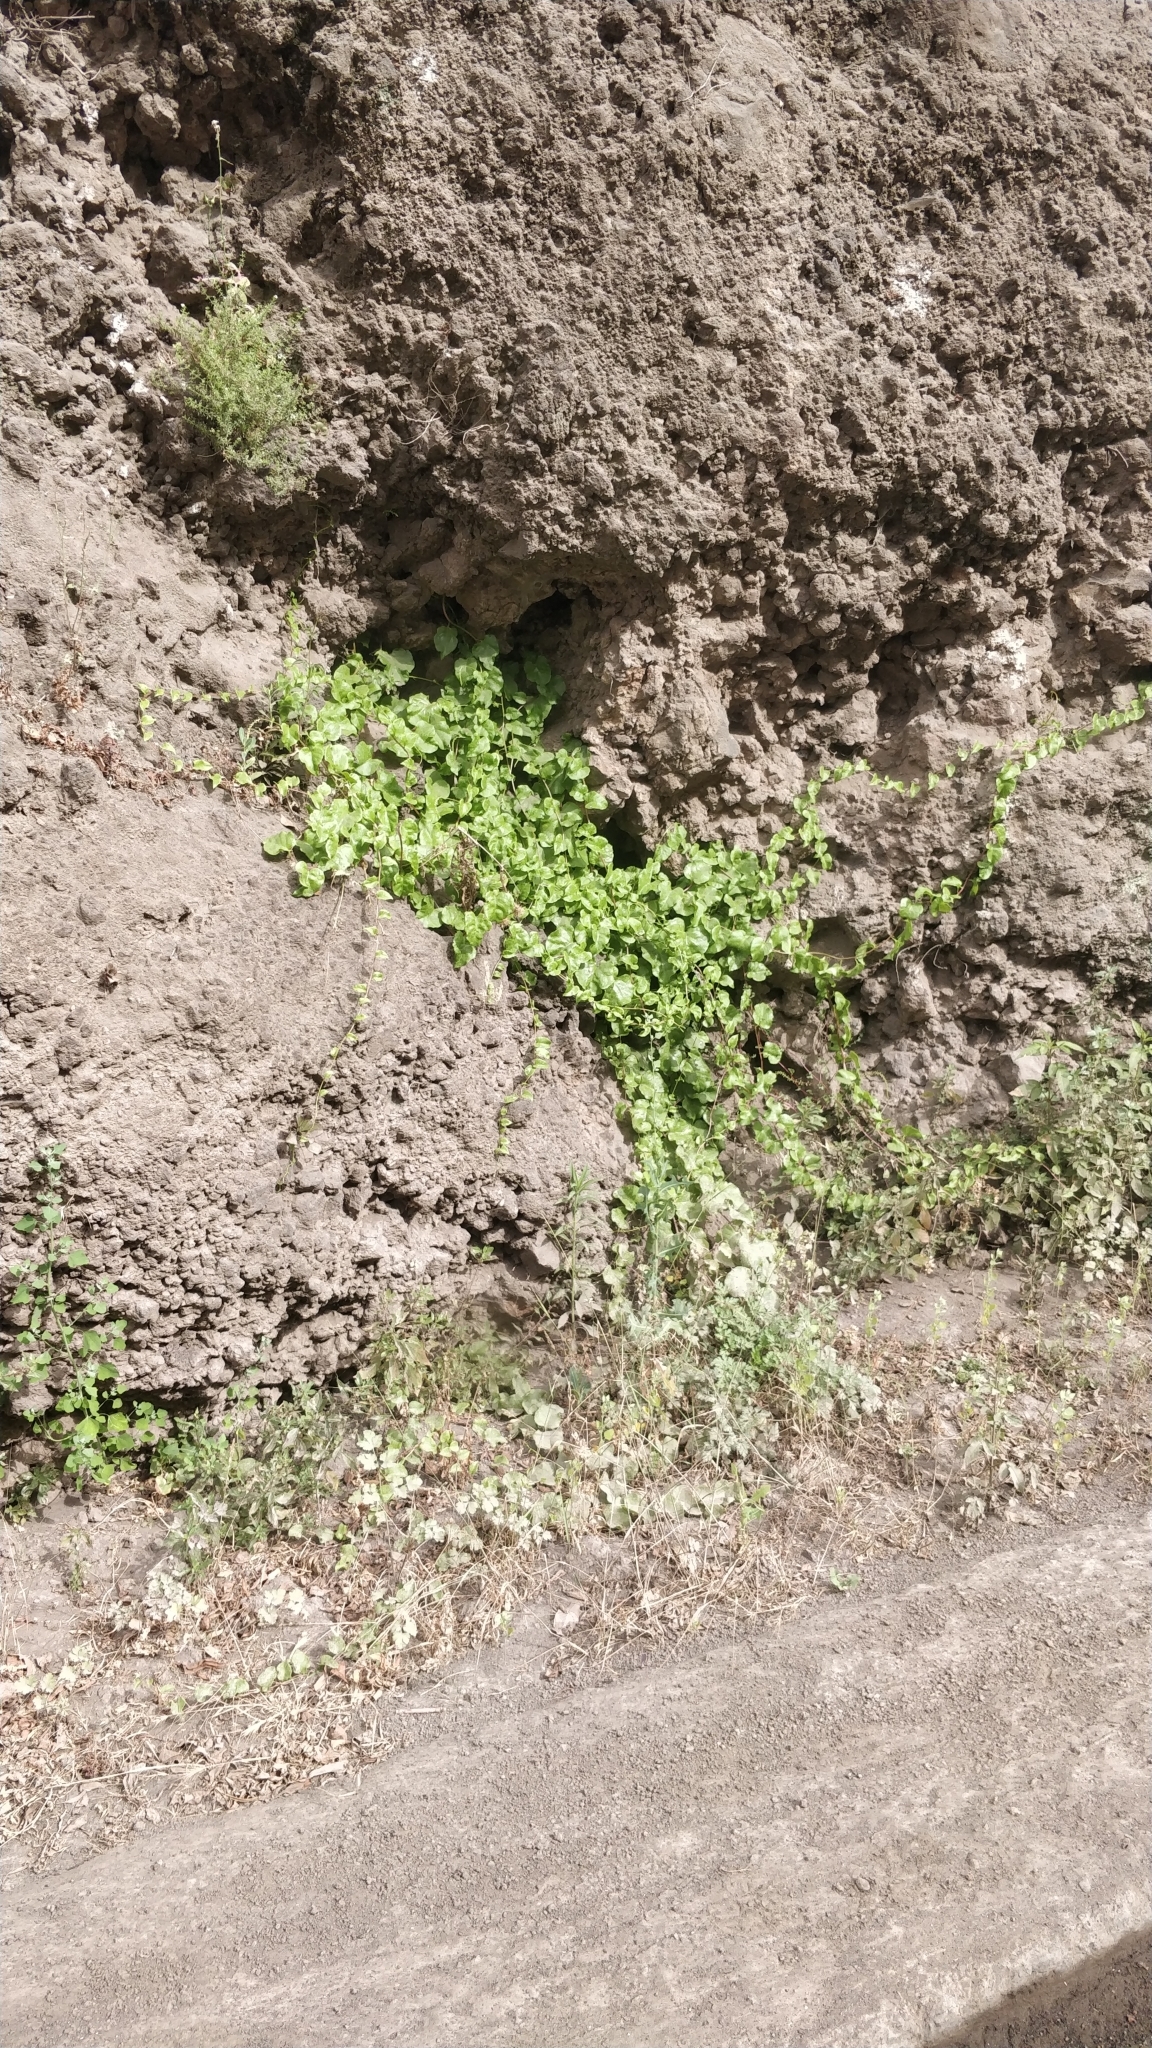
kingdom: Plantae
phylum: Tracheophyta
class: Magnoliopsida
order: Caryophyllales
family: Basellaceae
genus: Anredera
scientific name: Anredera cordifolia
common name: Heartleaf madeiravine
